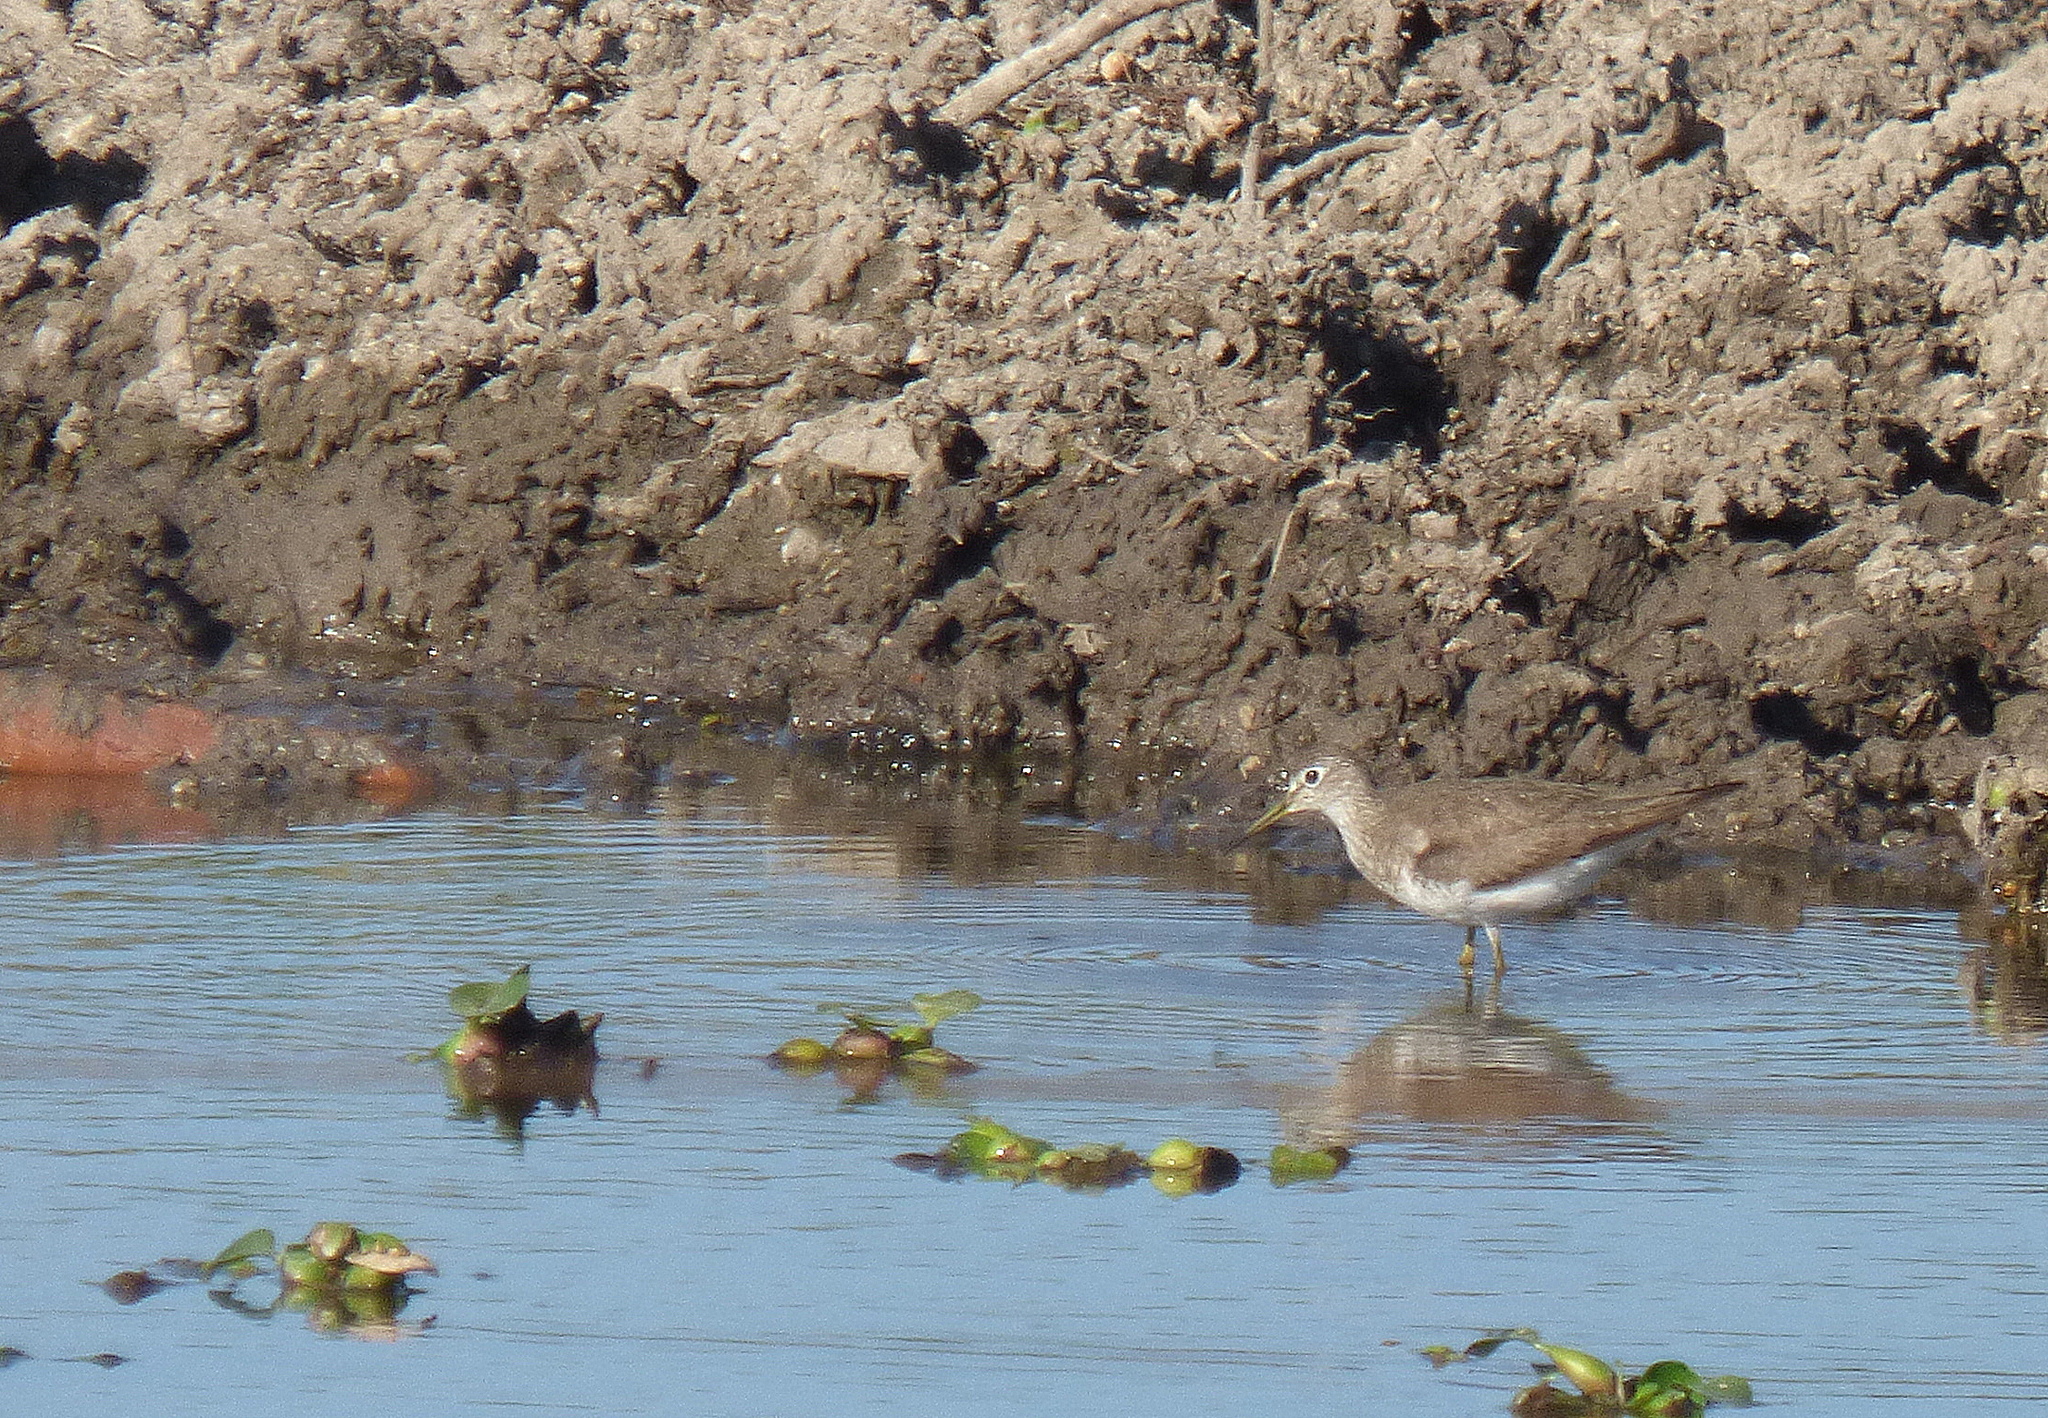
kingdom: Animalia
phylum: Chordata
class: Aves
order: Charadriiformes
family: Scolopacidae
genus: Tringa
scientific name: Tringa solitaria
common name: Solitary sandpiper
